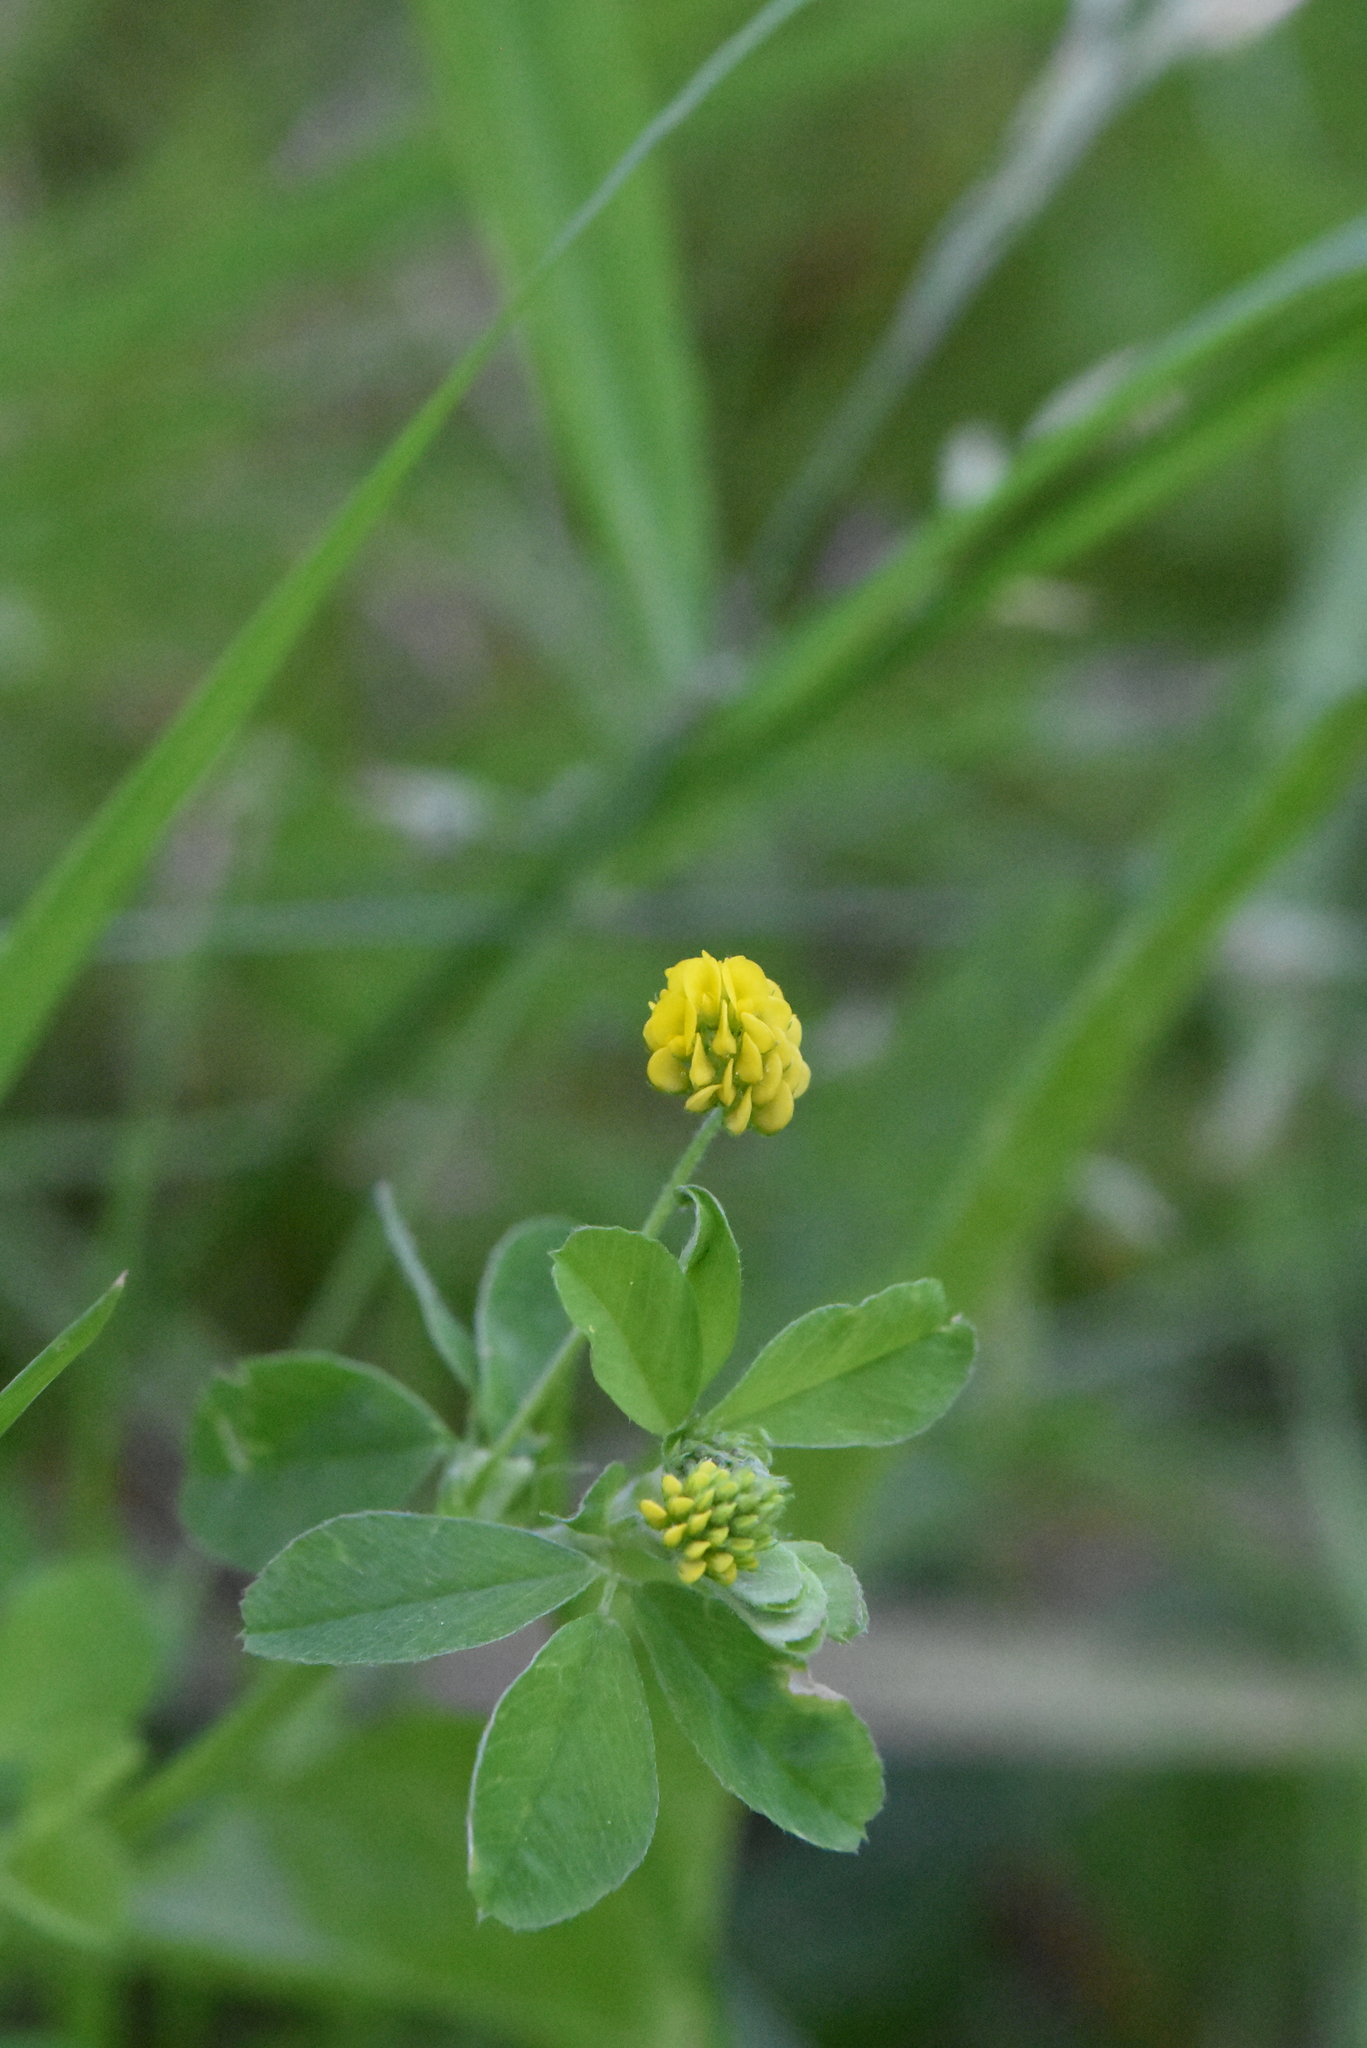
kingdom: Plantae
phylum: Tracheophyta
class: Magnoliopsida
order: Fabales
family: Fabaceae
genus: Medicago
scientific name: Medicago lupulina
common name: Black medick
